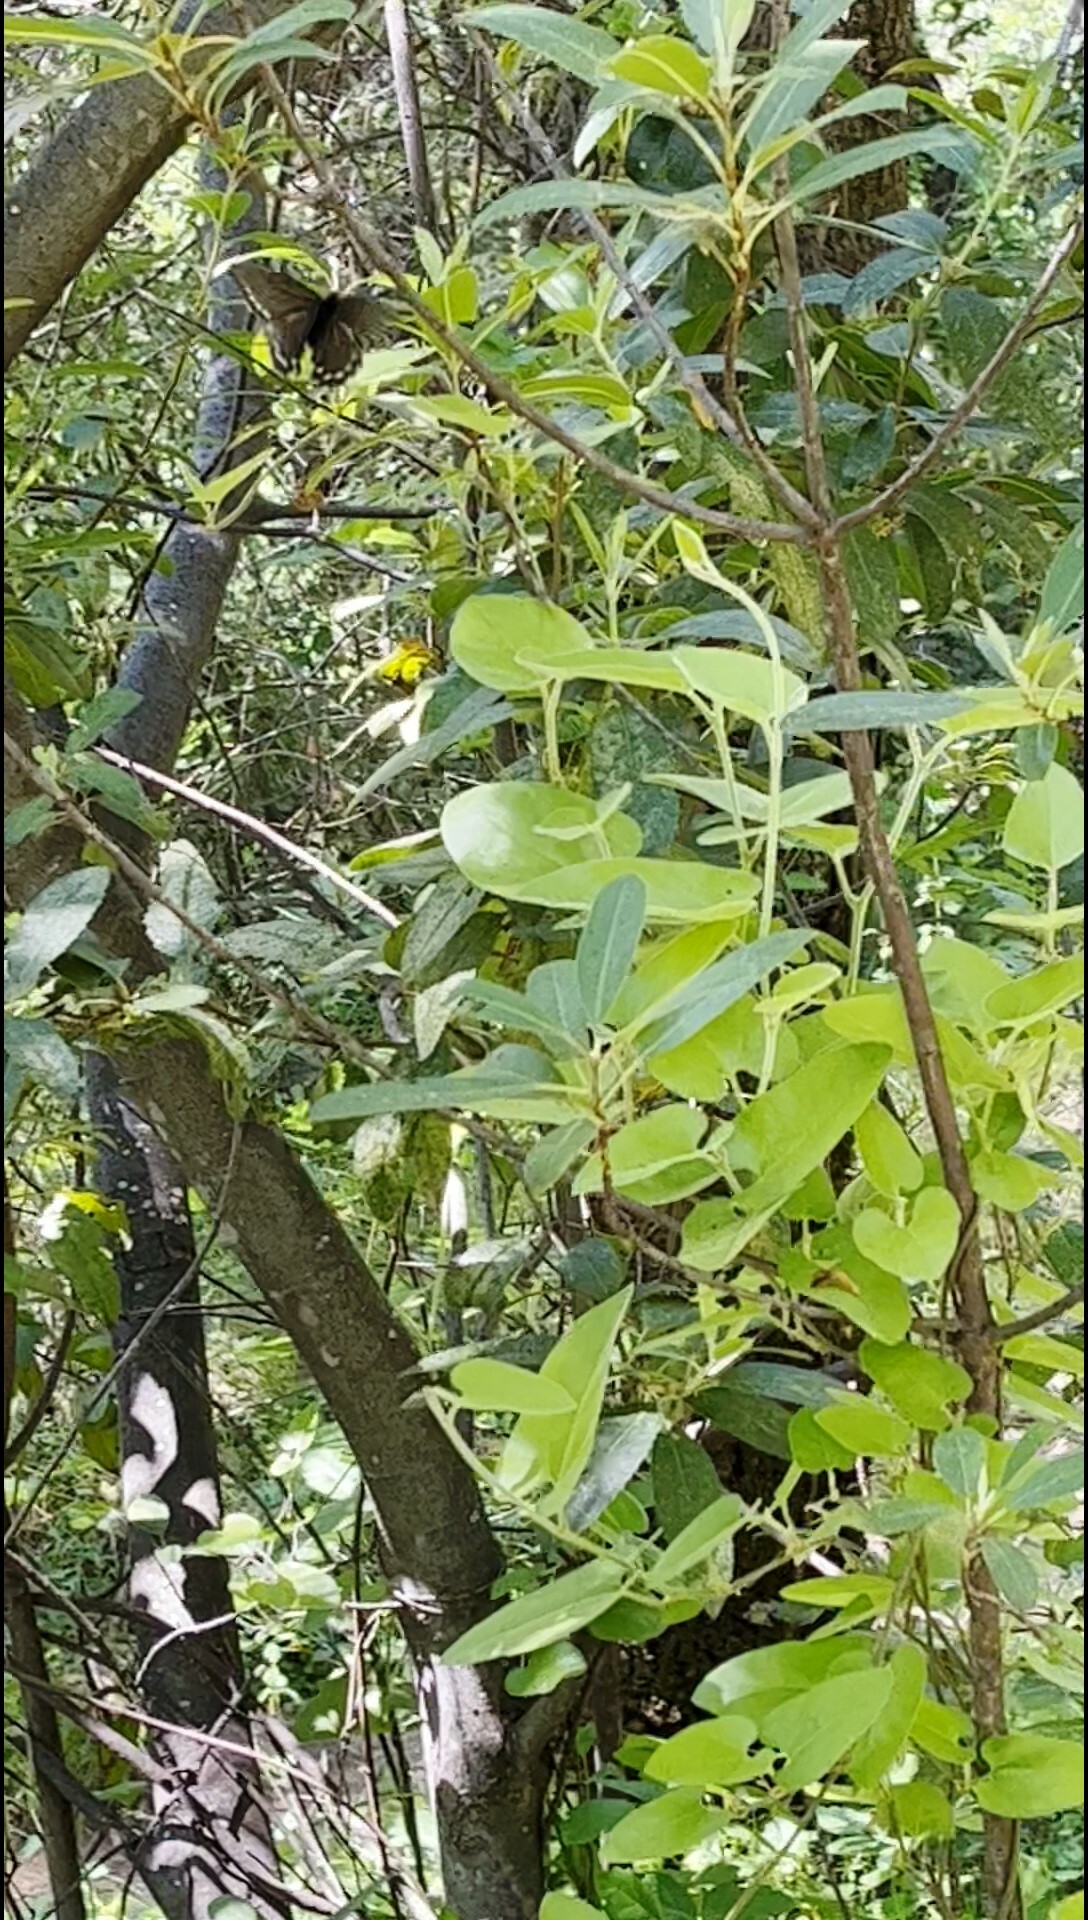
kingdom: Animalia
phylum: Arthropoda
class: Insecta
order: Lepidoptera
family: Papilionidae
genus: Battus
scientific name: Battus philenor
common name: Pipevine swallowtail
